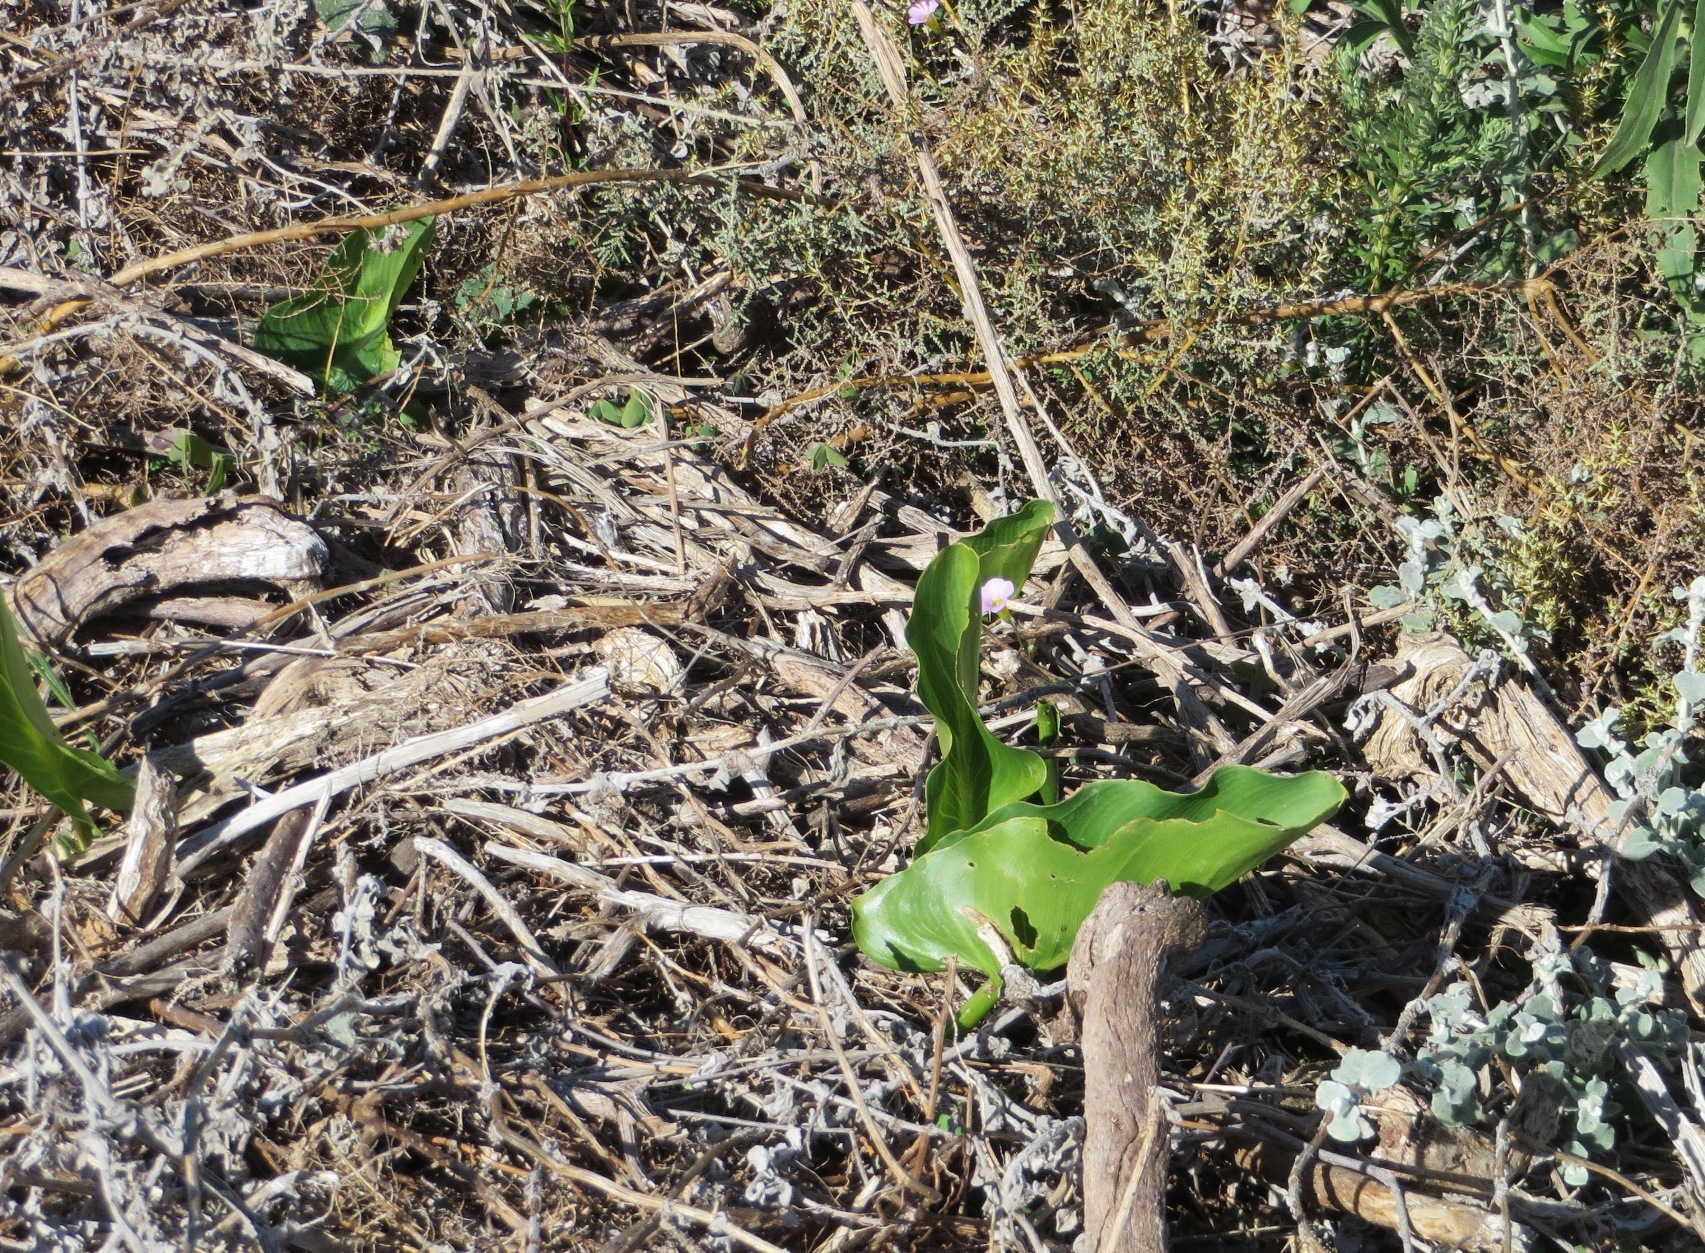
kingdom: Plantae
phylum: Tracheophyta
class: Liliopsida
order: Alismatales
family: Araceae
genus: Zantedeschia
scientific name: Zantedeschia aethiopica
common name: Altar-lily
